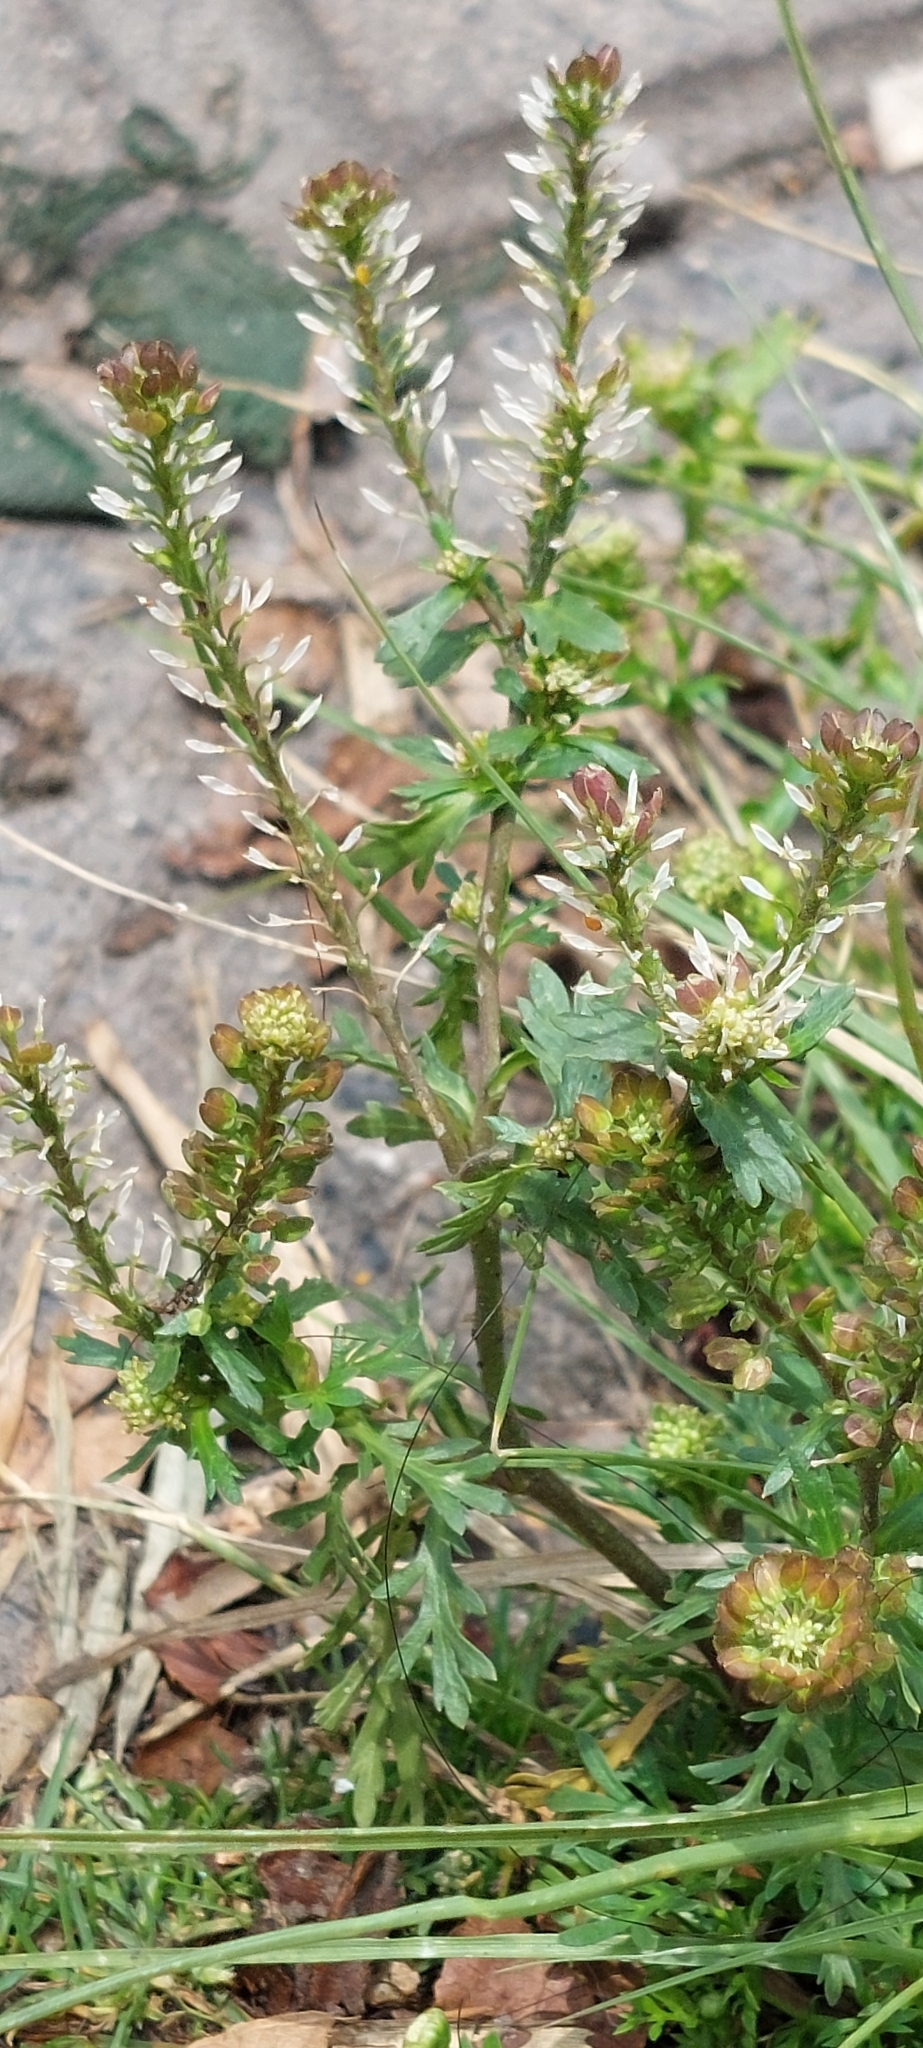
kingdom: Plantae
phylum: Tracheophyta
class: Magnoliopsida
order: Brassicales
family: Brassicaceae
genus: Lepidium
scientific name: Lepidium bipinnatifidum
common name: Wayside pepperwort
